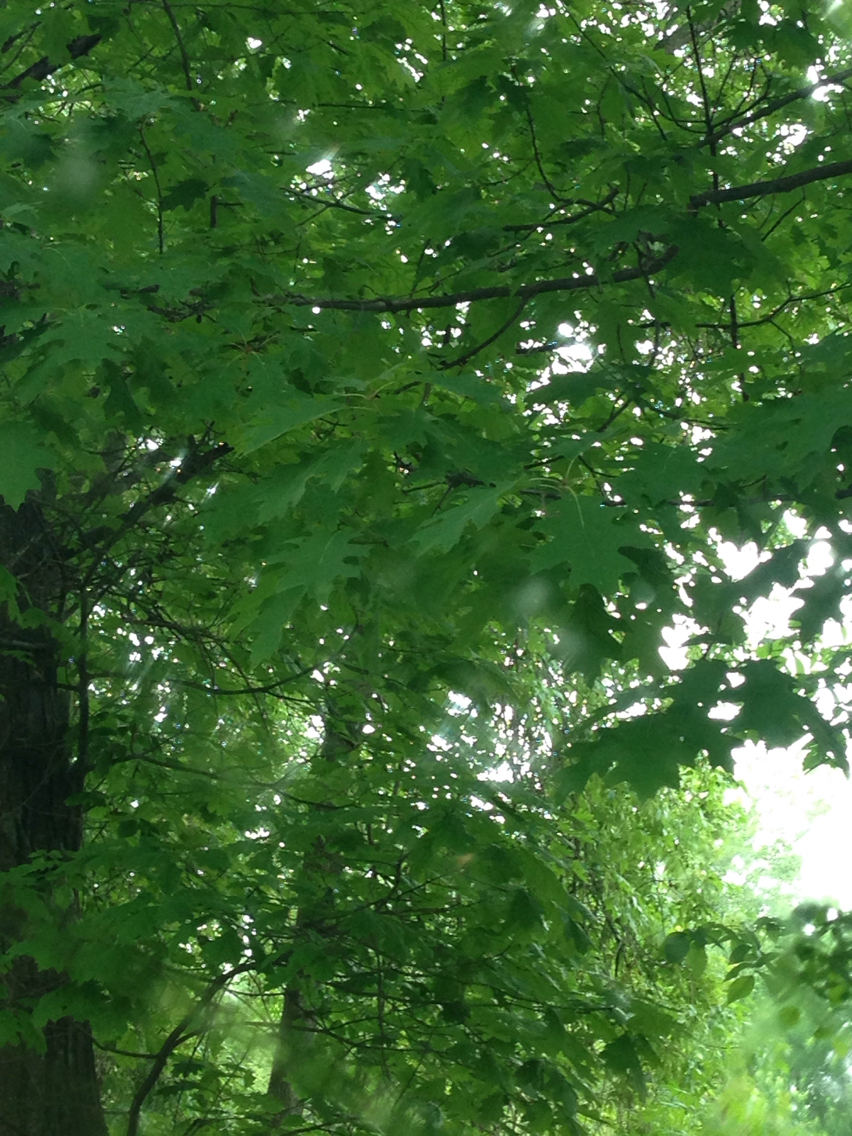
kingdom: Plantae
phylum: Tracheophyta
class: Magnoliopsida
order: Fagales
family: Fagaceae
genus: Quercus
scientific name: Quercus rubra
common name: Red oak
